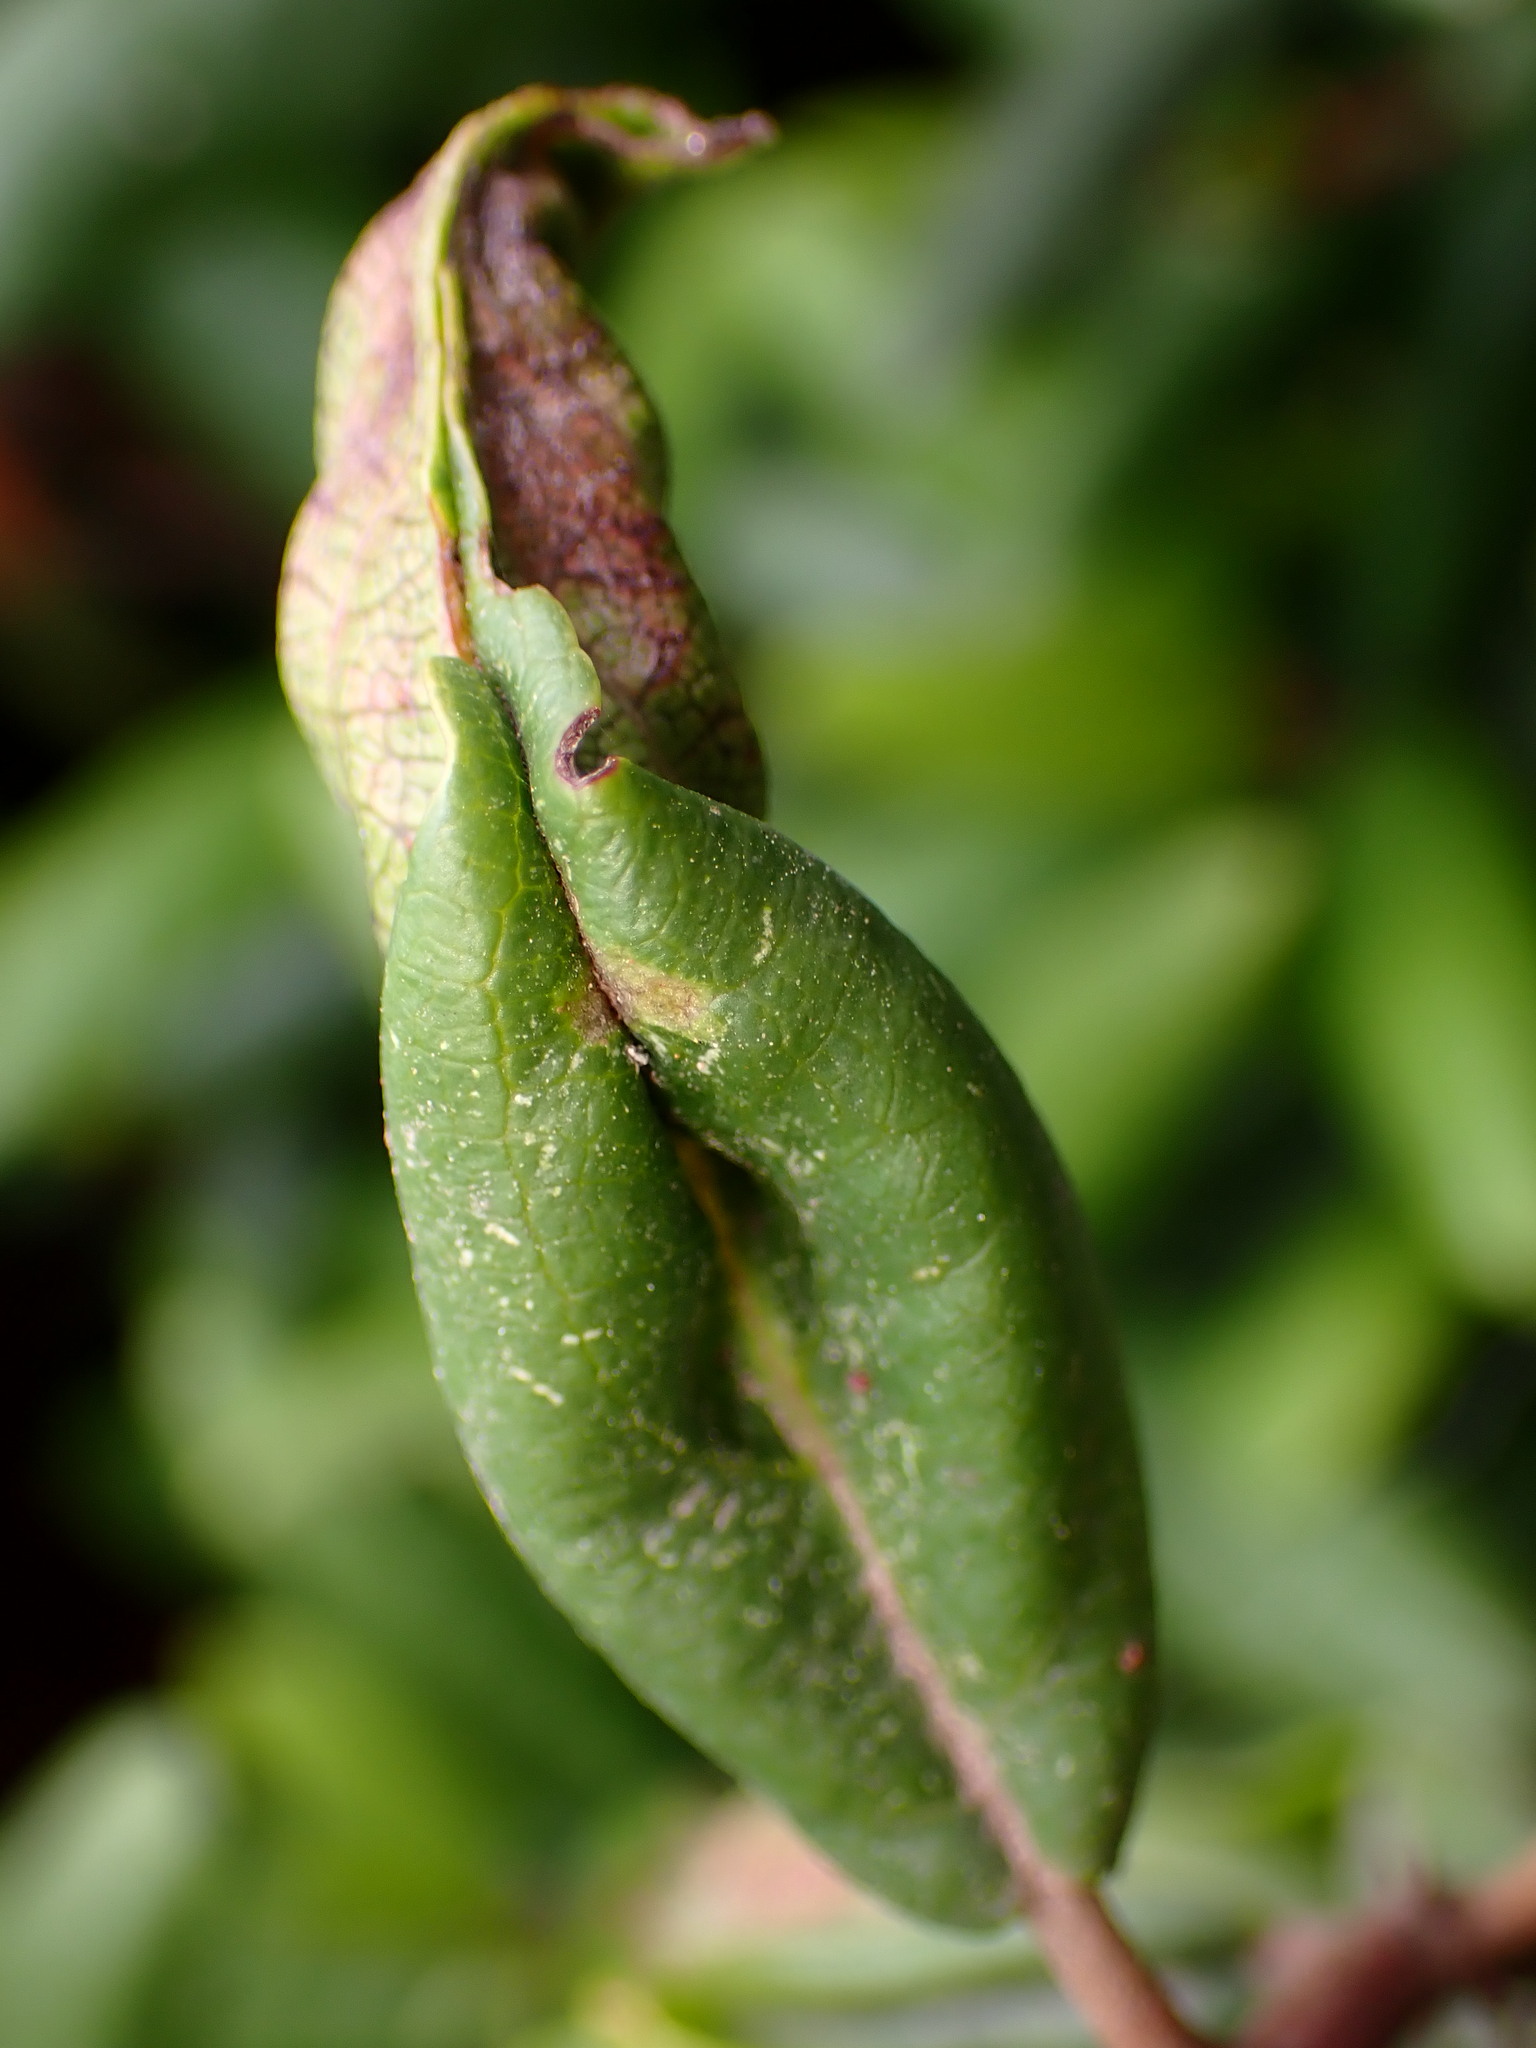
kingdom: Animalia
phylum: Arthropoda
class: Insecta
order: Lepidoptera
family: Cosmopterigidae
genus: Sorhagenia
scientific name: Sorhagenia nimbosus
